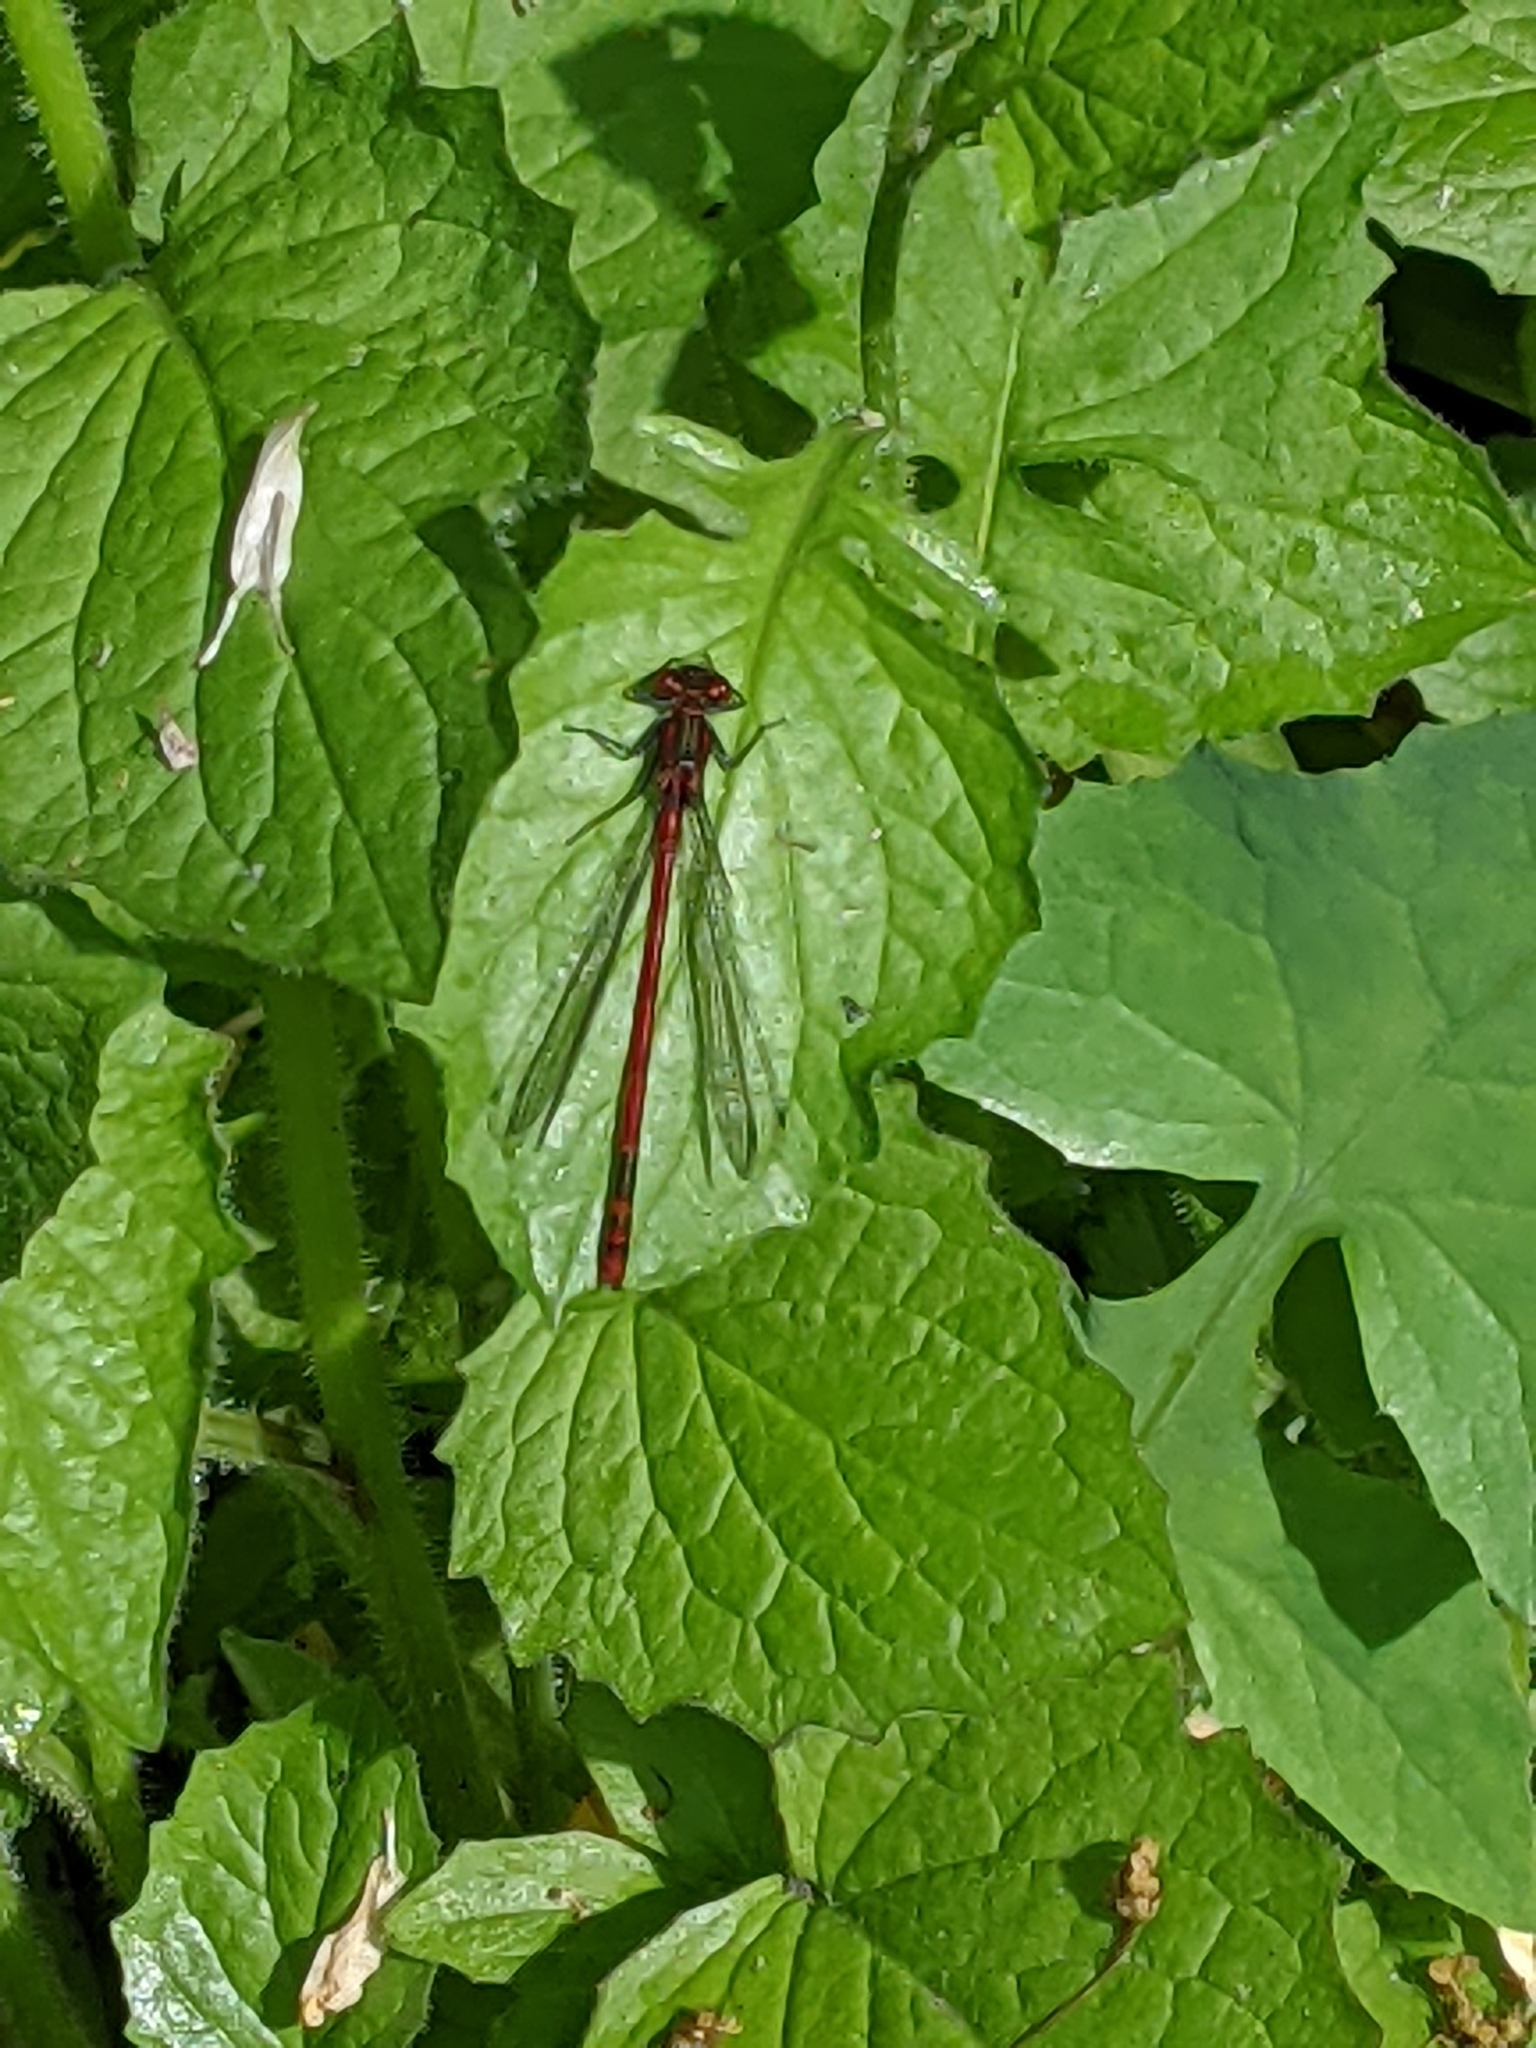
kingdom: Animalia
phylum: Arthropoda
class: Insecta
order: Odonata
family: Coenagrionidae
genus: Pyrrhosoma
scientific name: Pyrrhosoma nymphula
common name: Large red damsel
